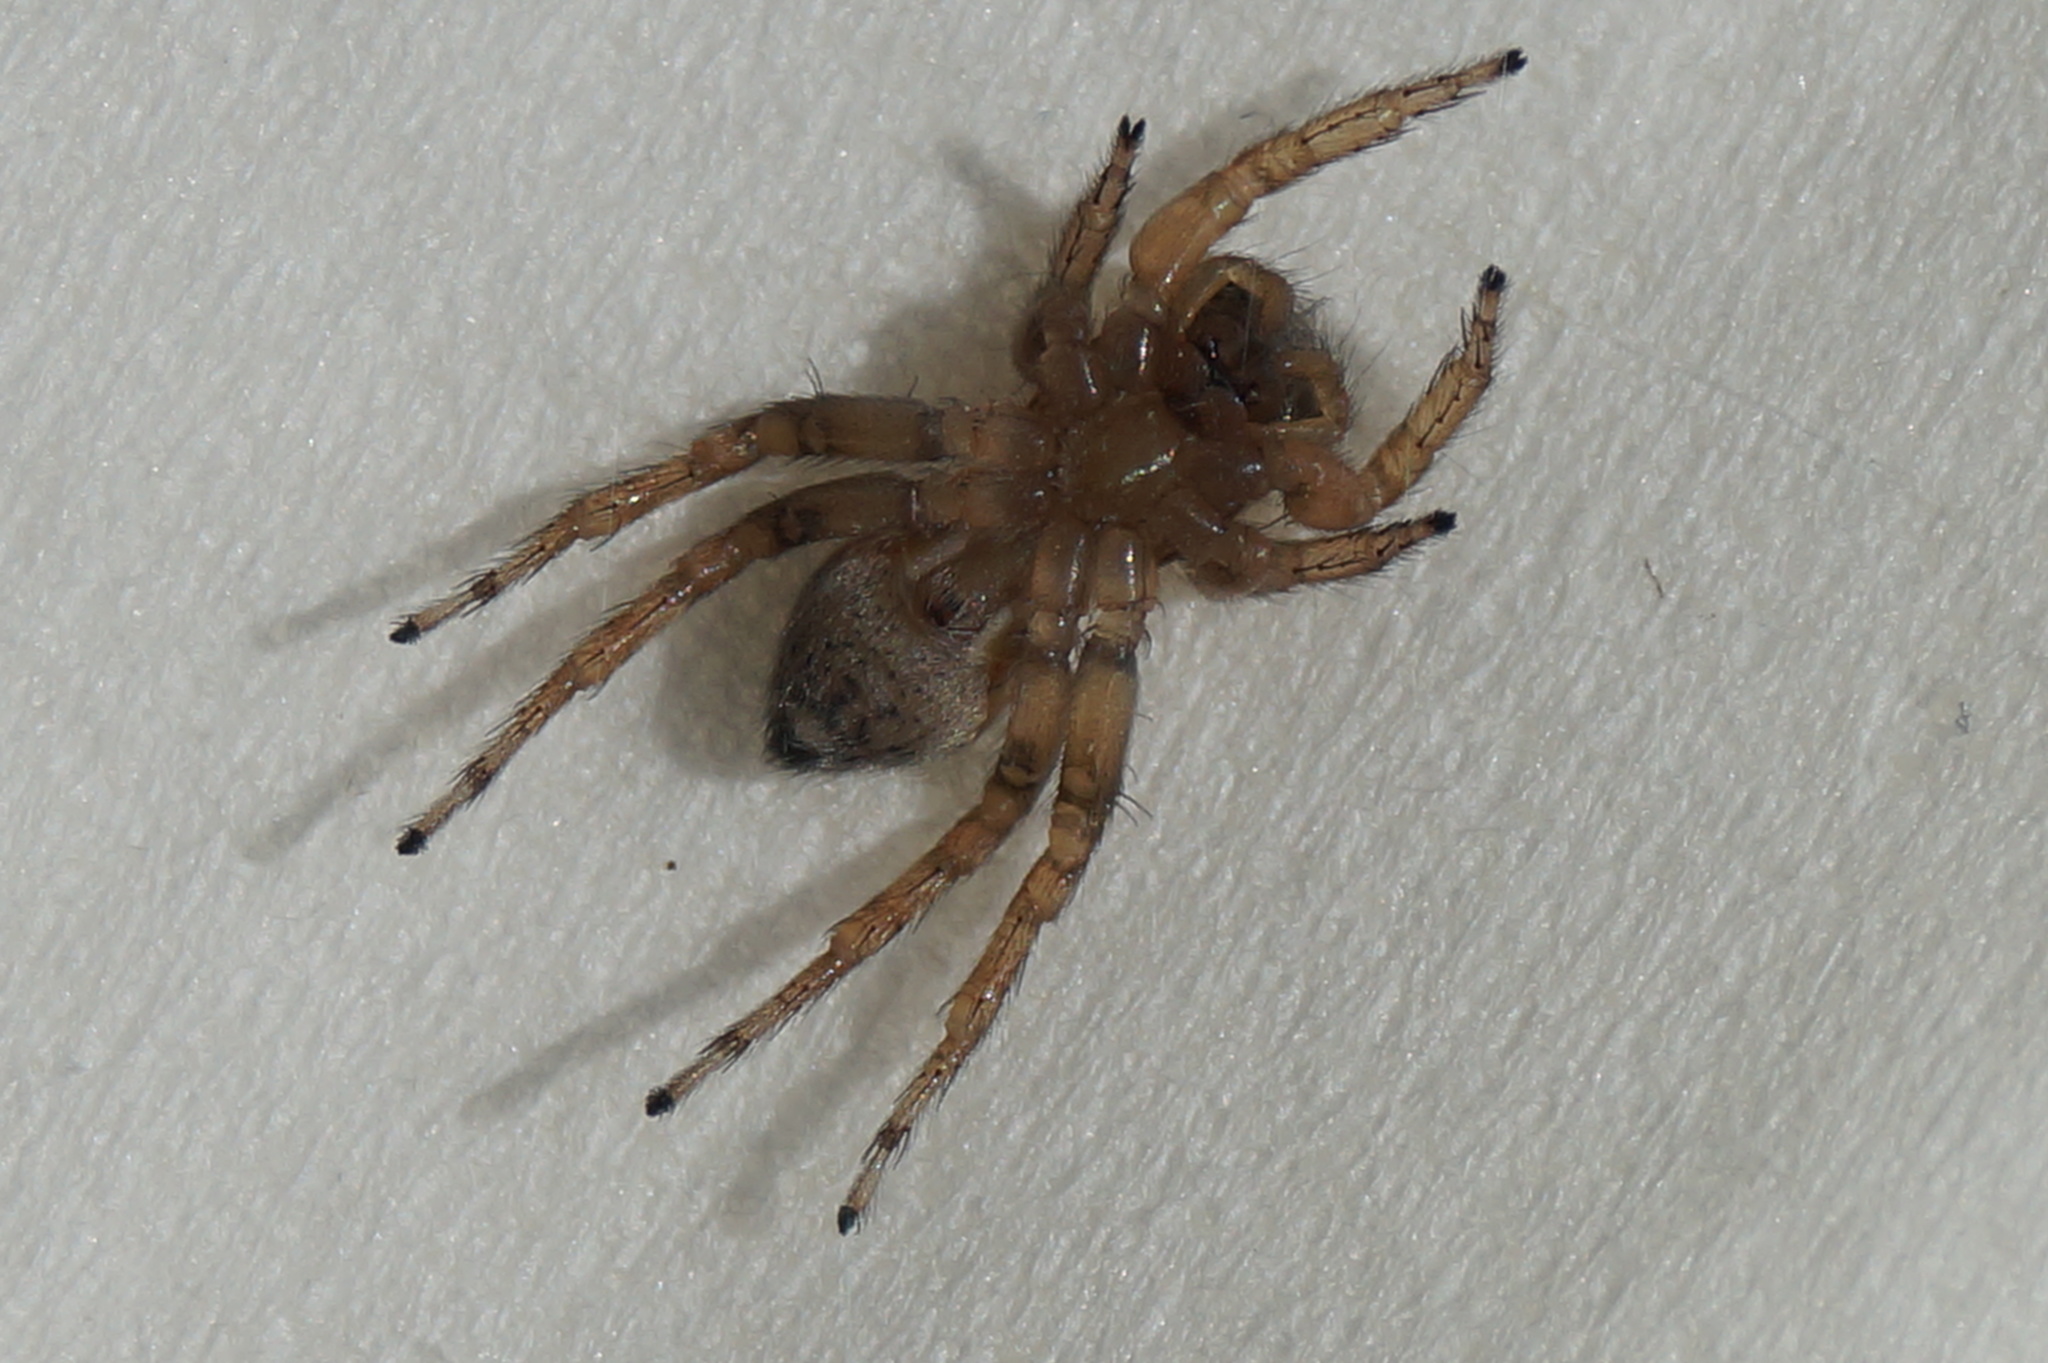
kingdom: Animalia
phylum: Arthropoda
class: Arachnida
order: Araneae
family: Salticidae
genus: Saitis
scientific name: Saitis barbipes
